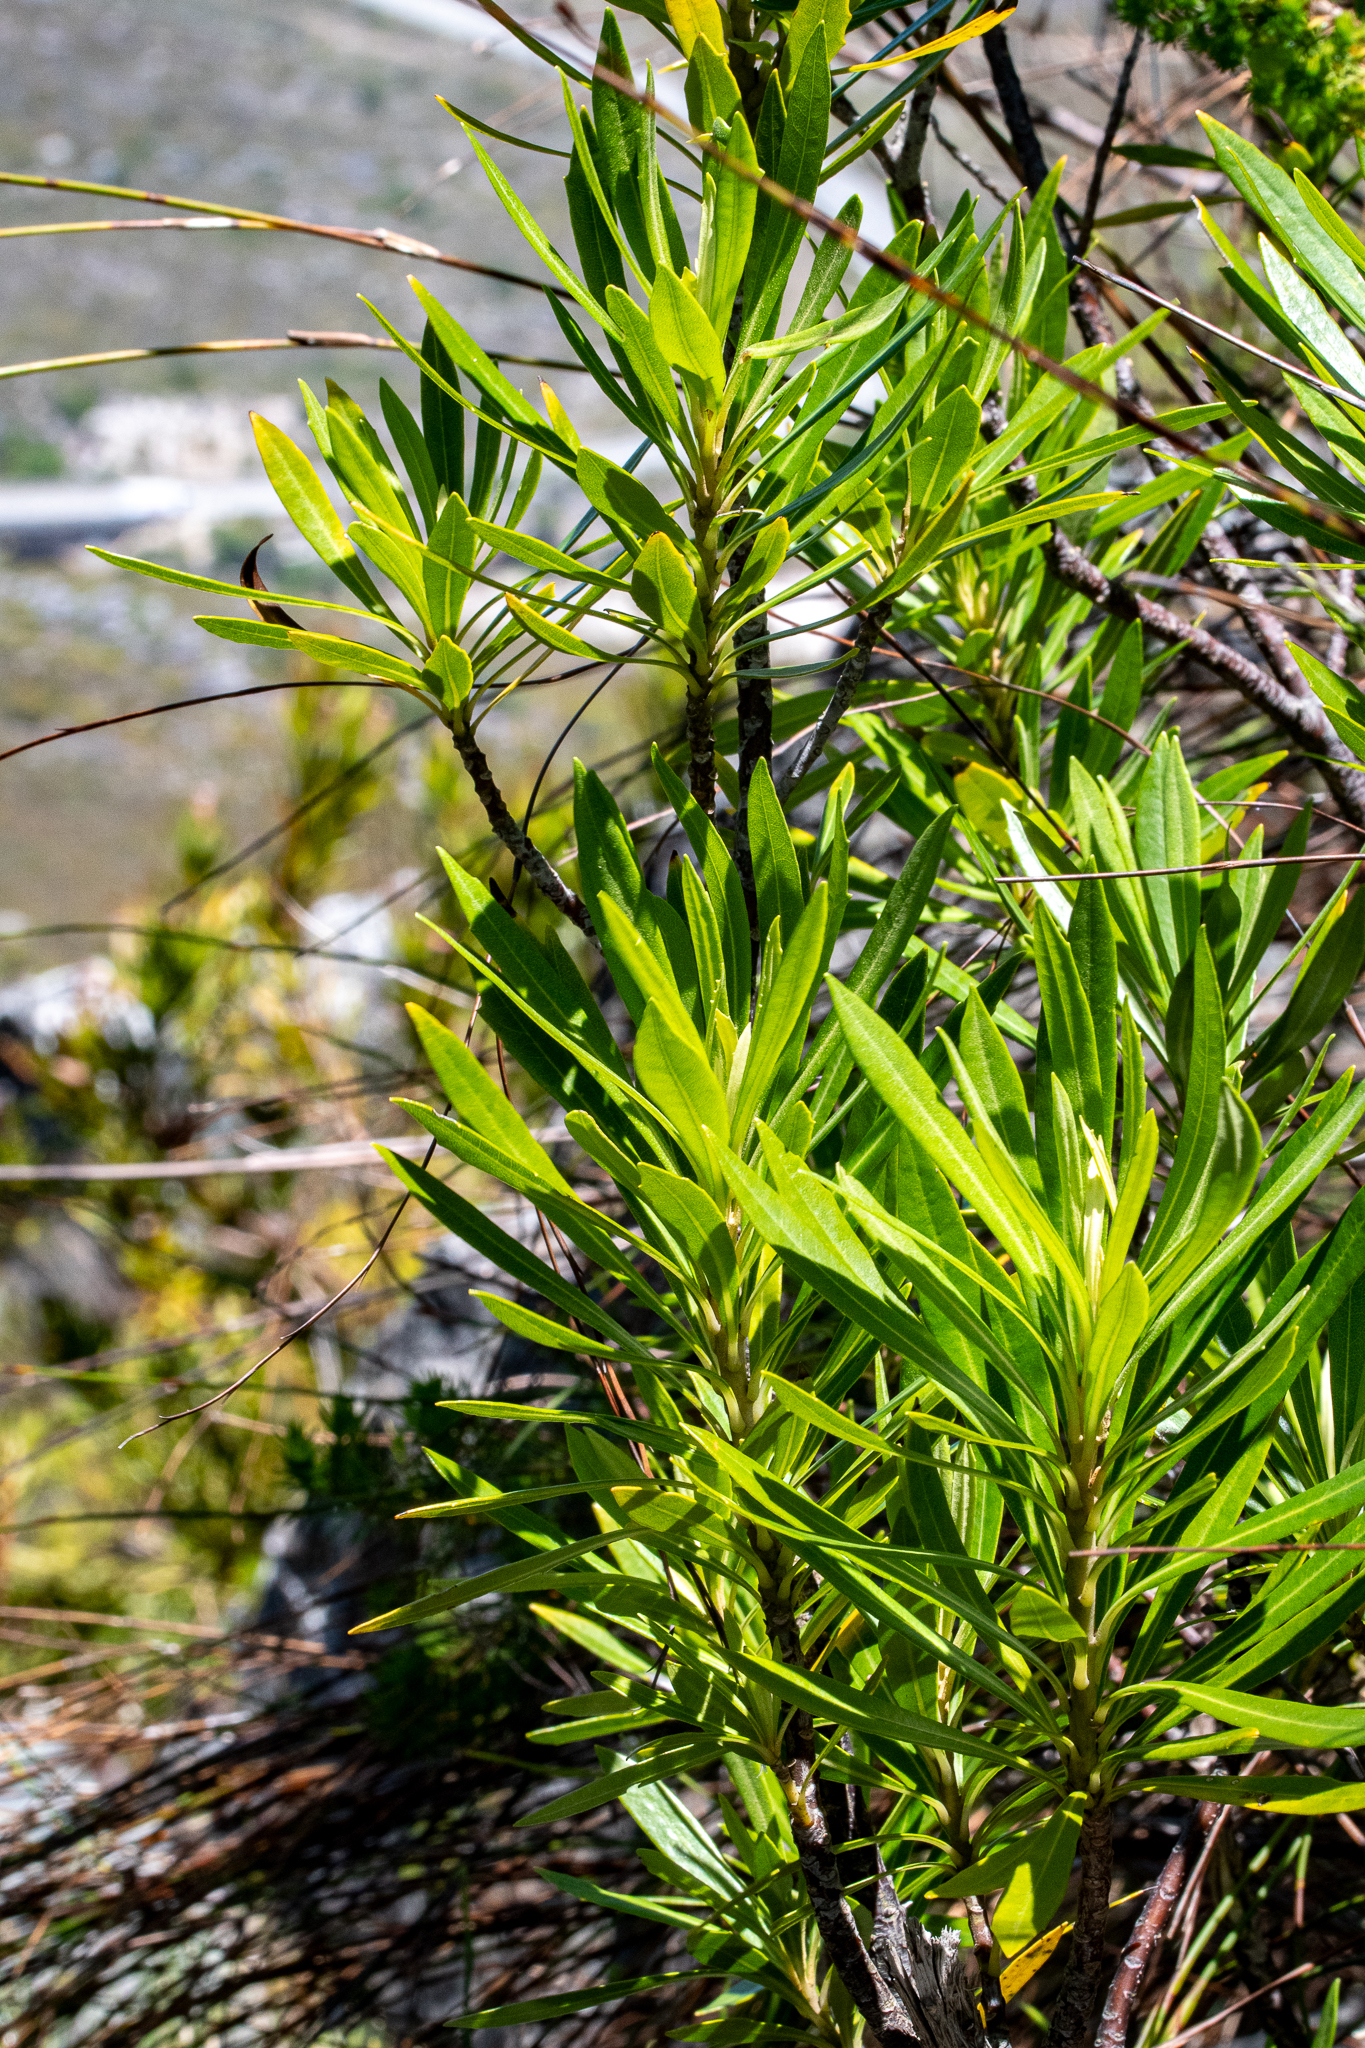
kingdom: Plantae
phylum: Tracheophyta
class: Magnoliopsida
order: Asterales
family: Asteraceae
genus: Brachylaena
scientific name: Brachylaena neriifolia
